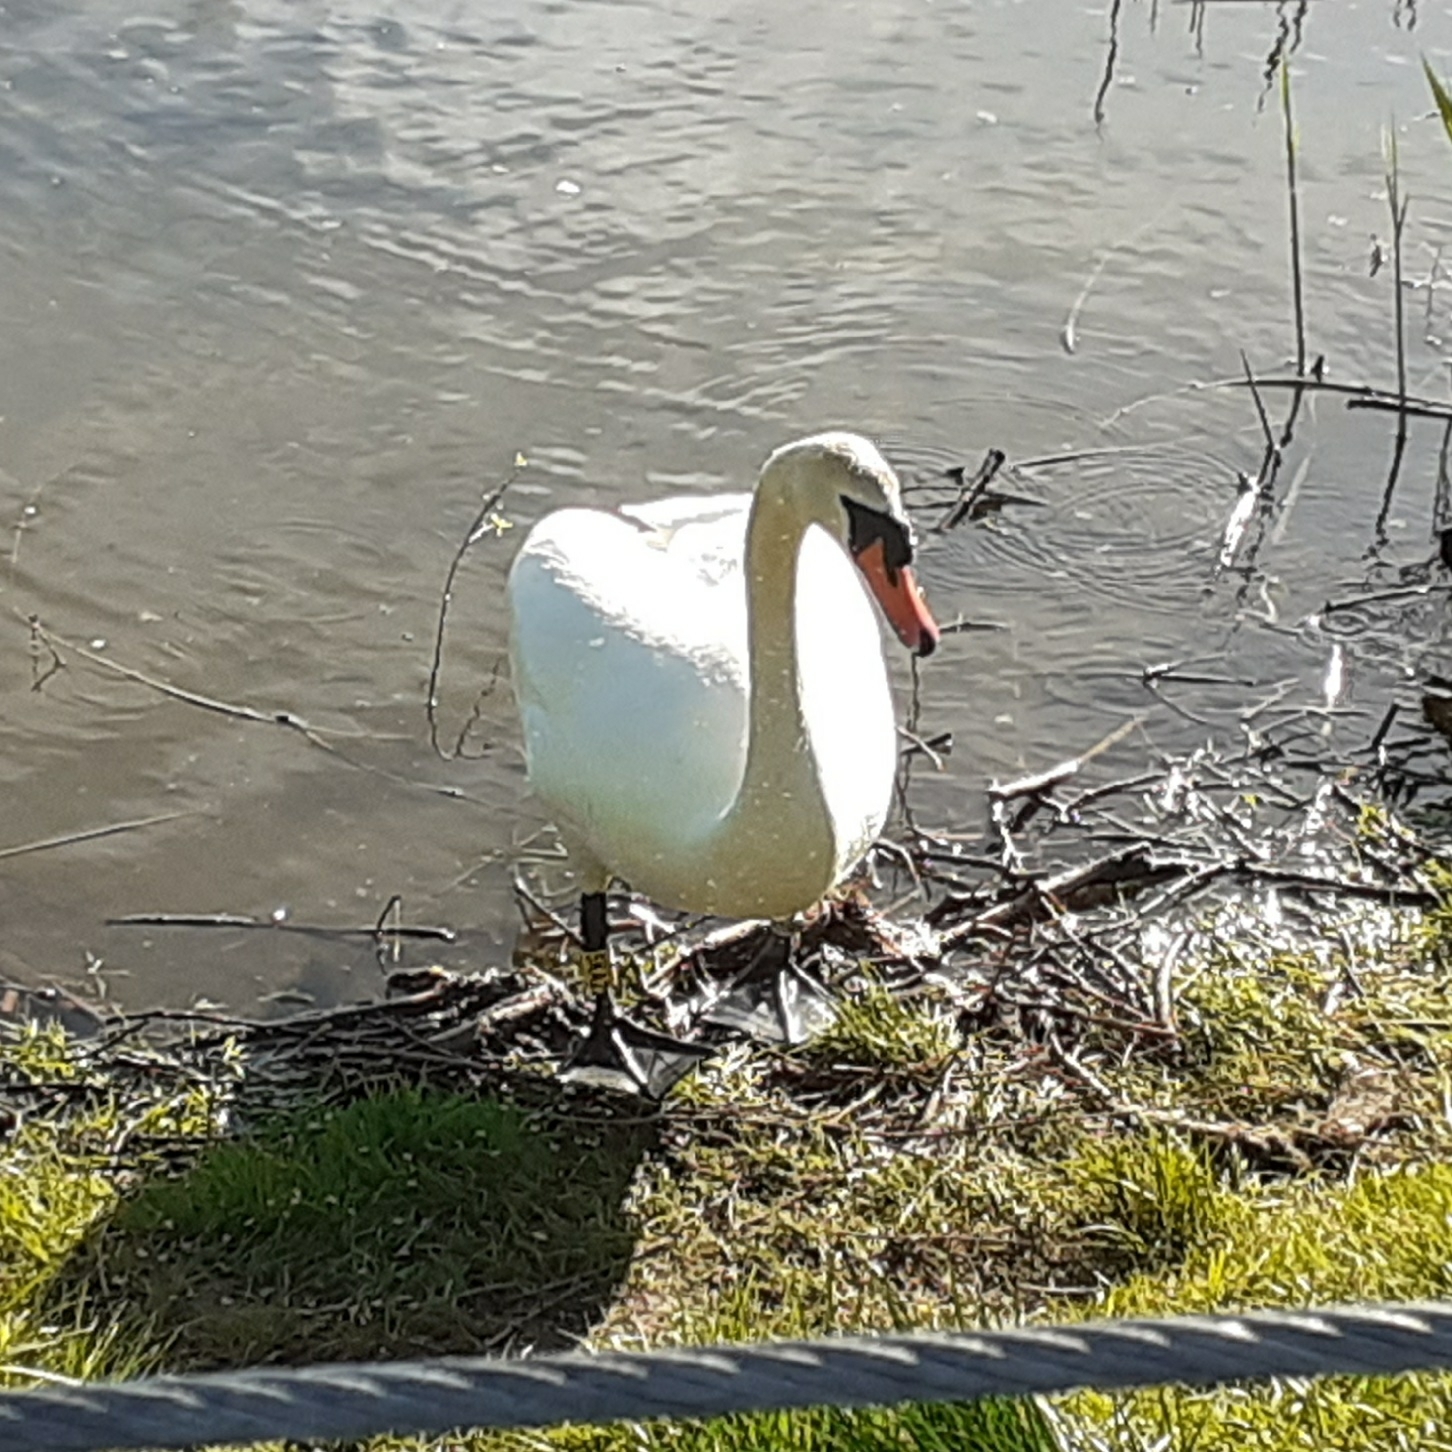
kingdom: Animalia
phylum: Chordata
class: Aves
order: Anseriformes
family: Anatidae
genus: Cygnus
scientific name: Cygnus olor
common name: Mute swan
